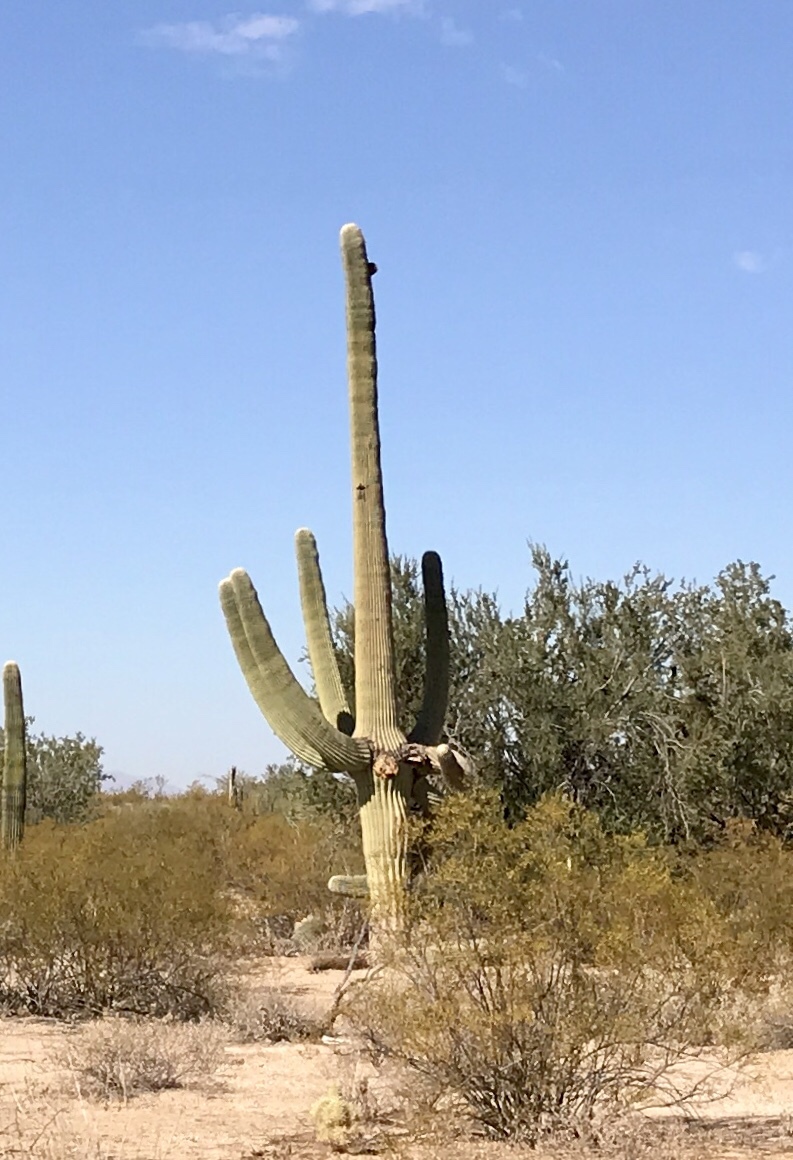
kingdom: Plantae
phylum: Tracheophyta
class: Magnoliopsida
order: Caryophyllales
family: Cactaceae
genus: Carnegiea
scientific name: Carnegiea gigantea
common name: Saguaro
